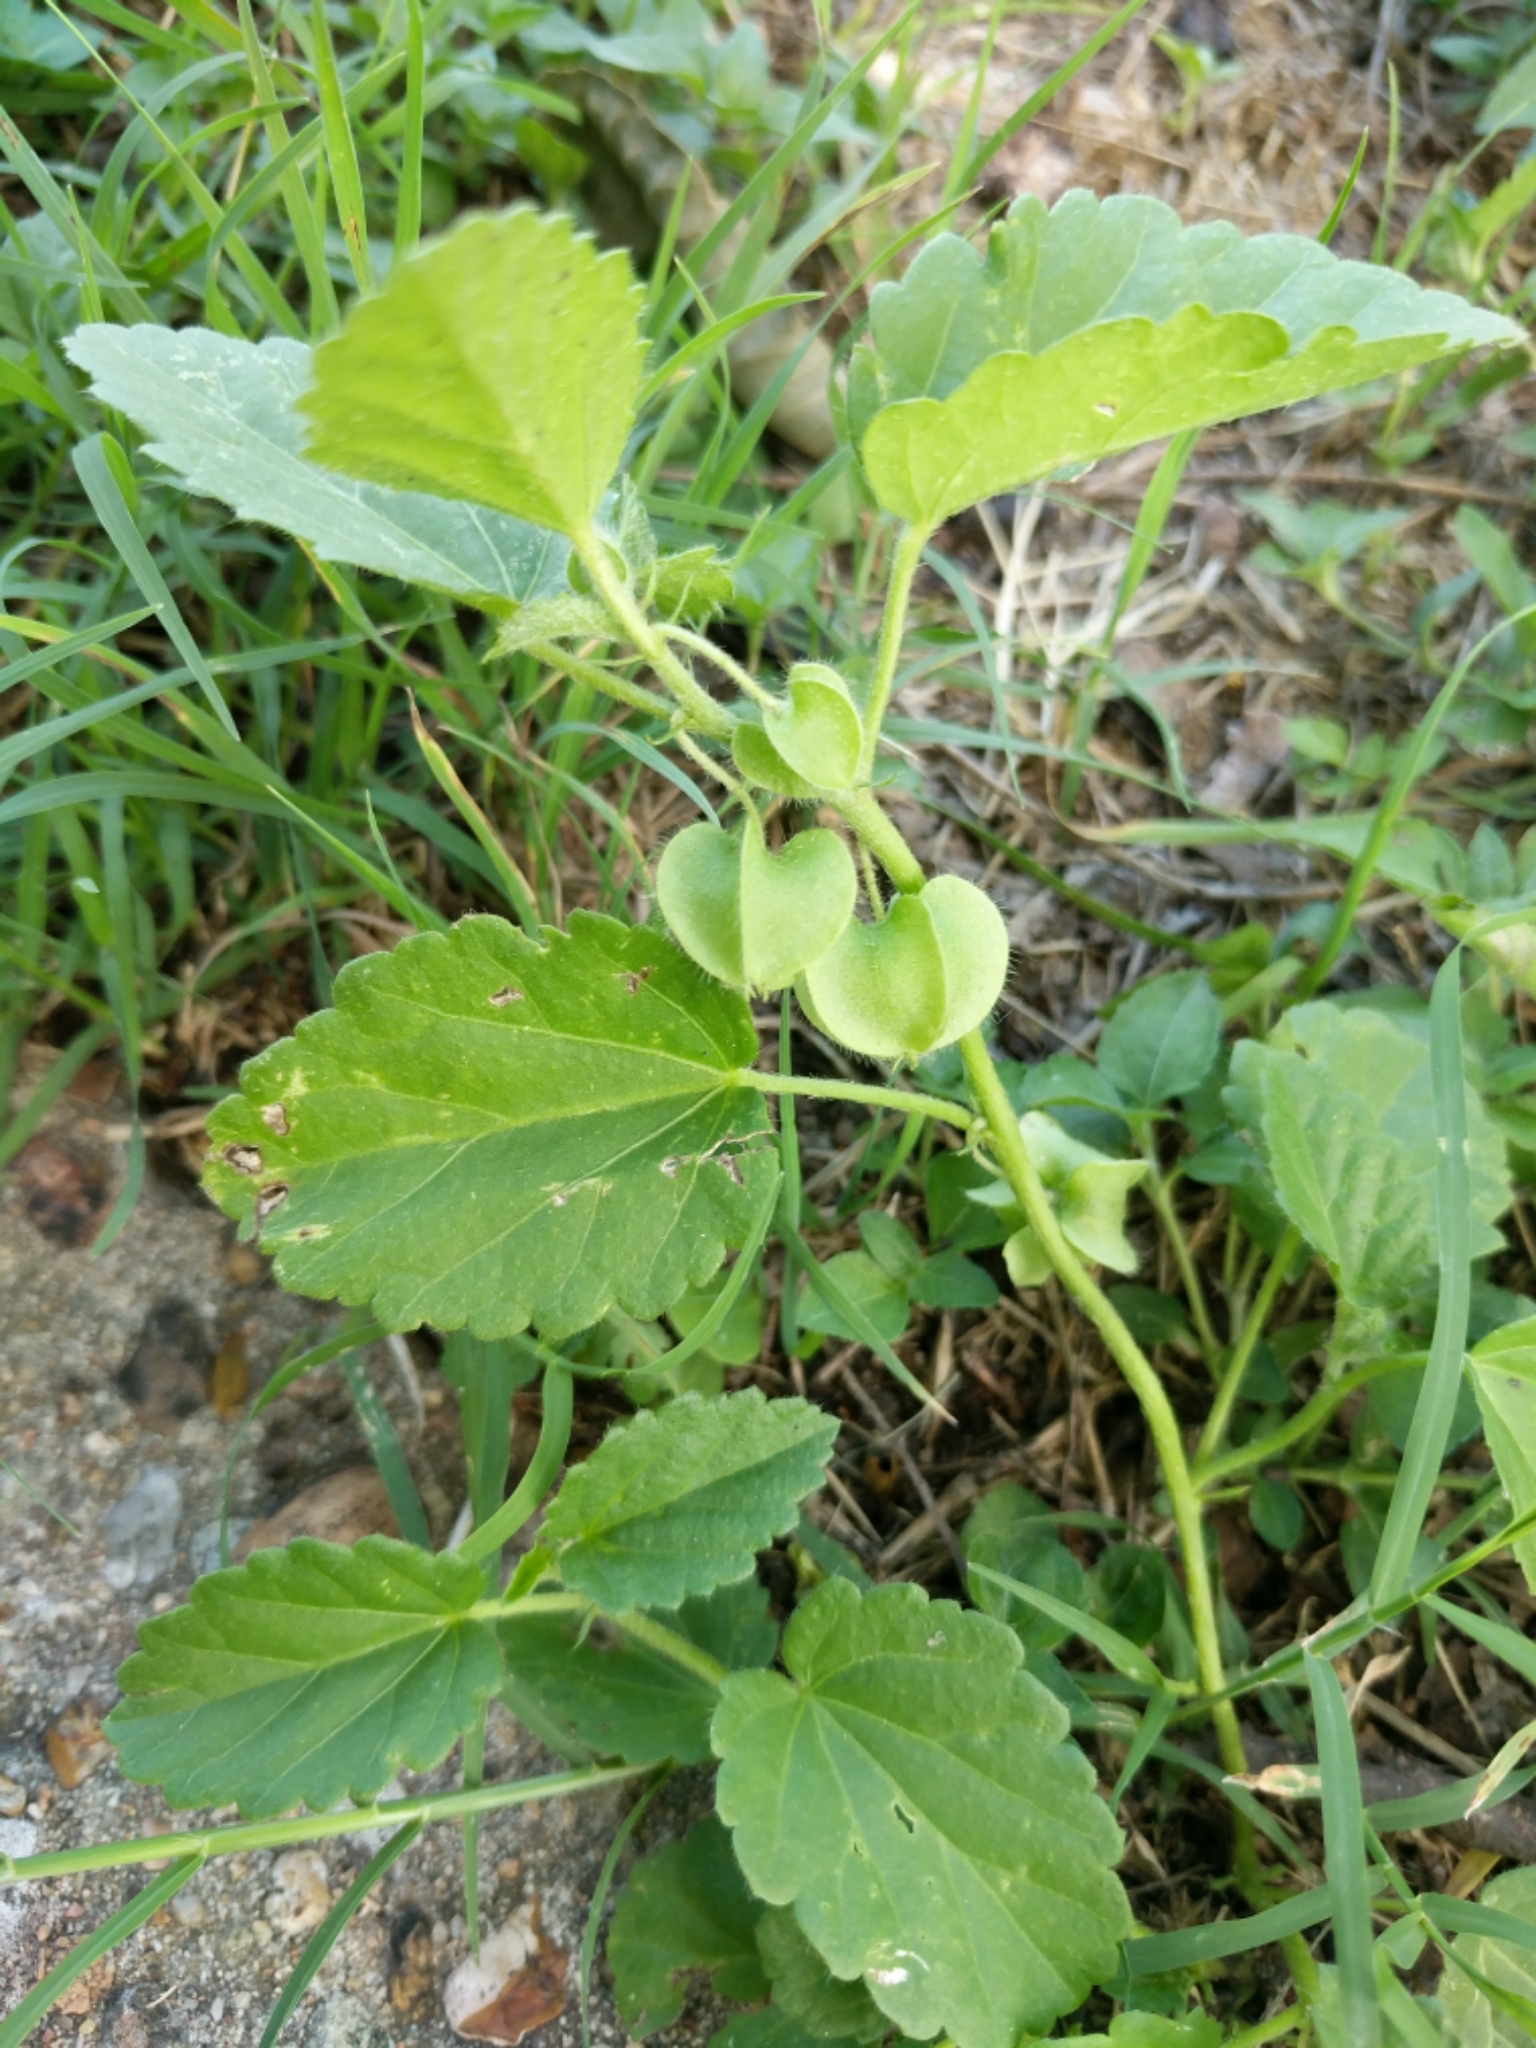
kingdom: Plantae
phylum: Tracheophyta
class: Magnoliopsida
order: Malvales
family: Malvaceae
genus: Rhynchosida
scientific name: Rhynchosida physocalyx
